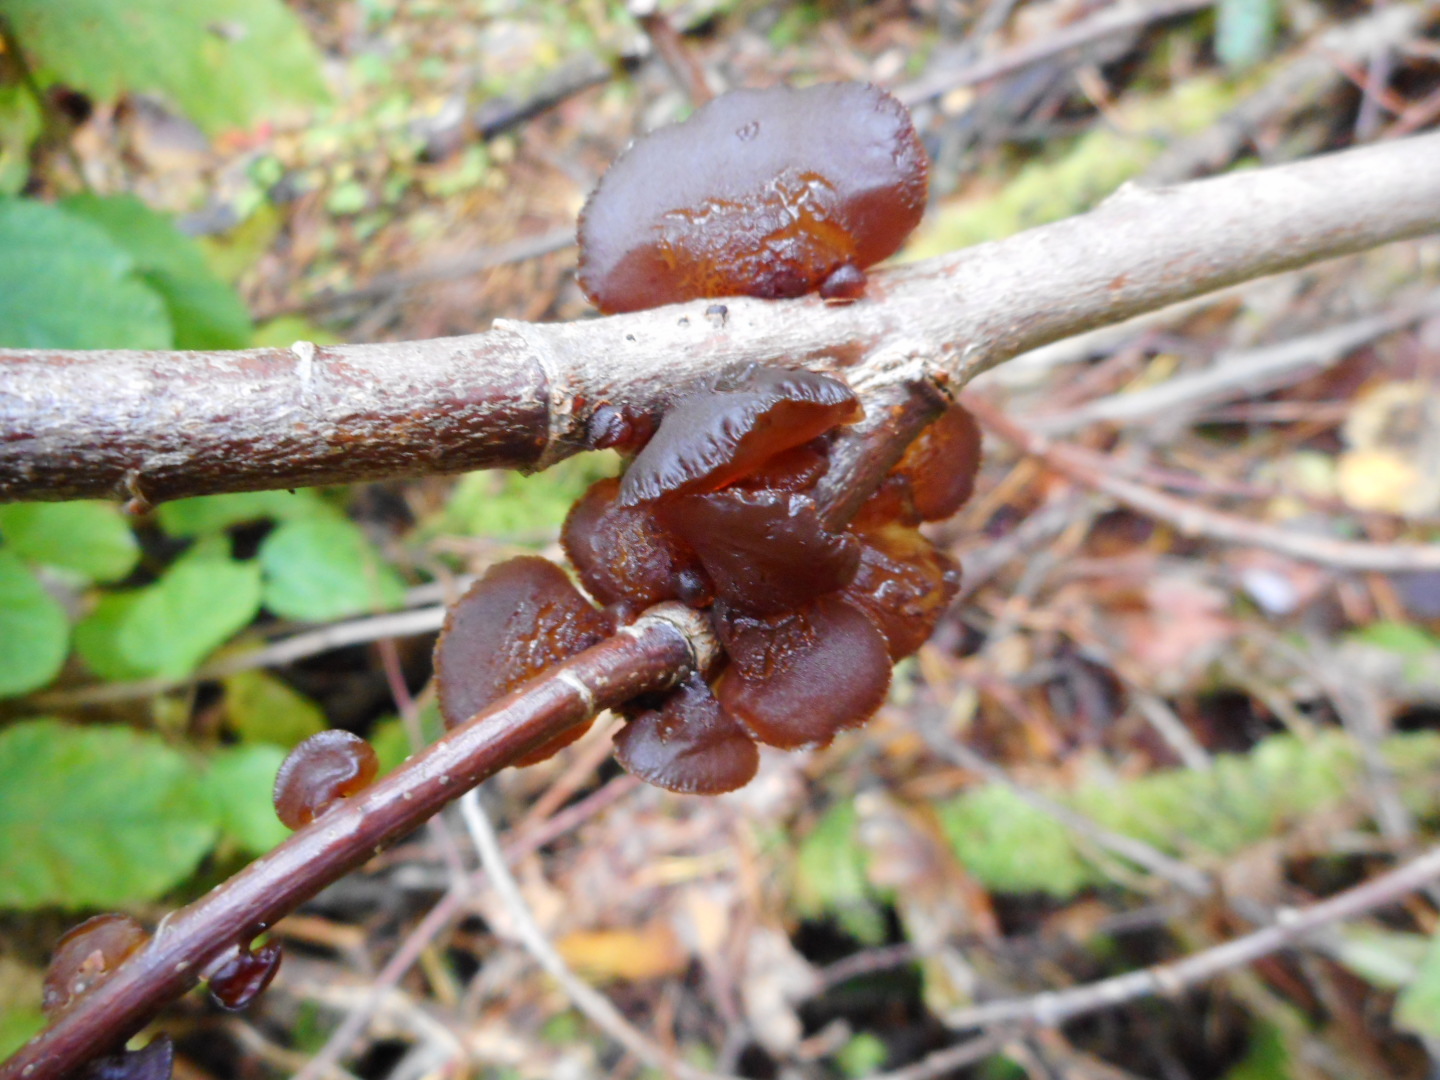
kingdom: Fungi
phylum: Basidiomycota
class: Agaricomycetes
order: Auriculariales
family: Auriculariaceae
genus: Exidia
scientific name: Exidia recisa
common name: Amber jelly
